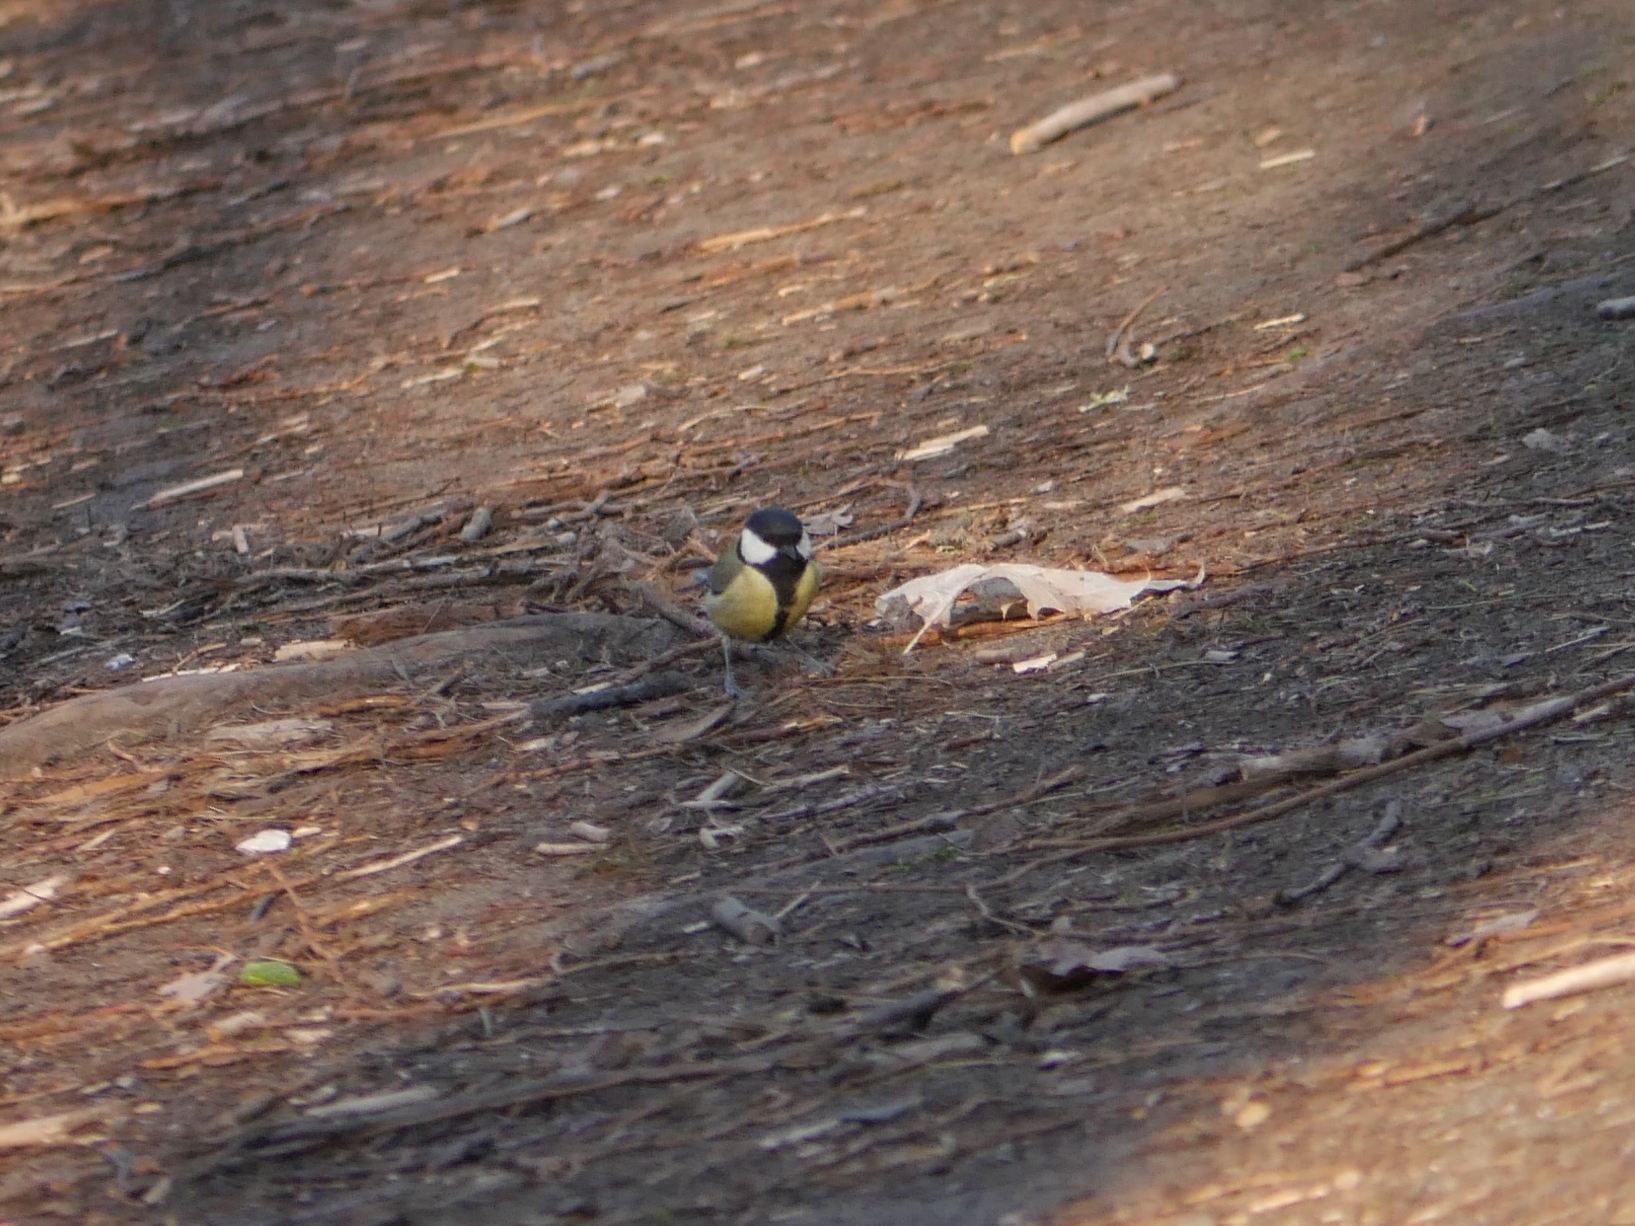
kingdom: Animalia
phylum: Chordata
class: Aves
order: Passeriformes
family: Paridae
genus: Parus
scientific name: Parus major
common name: Great tit
